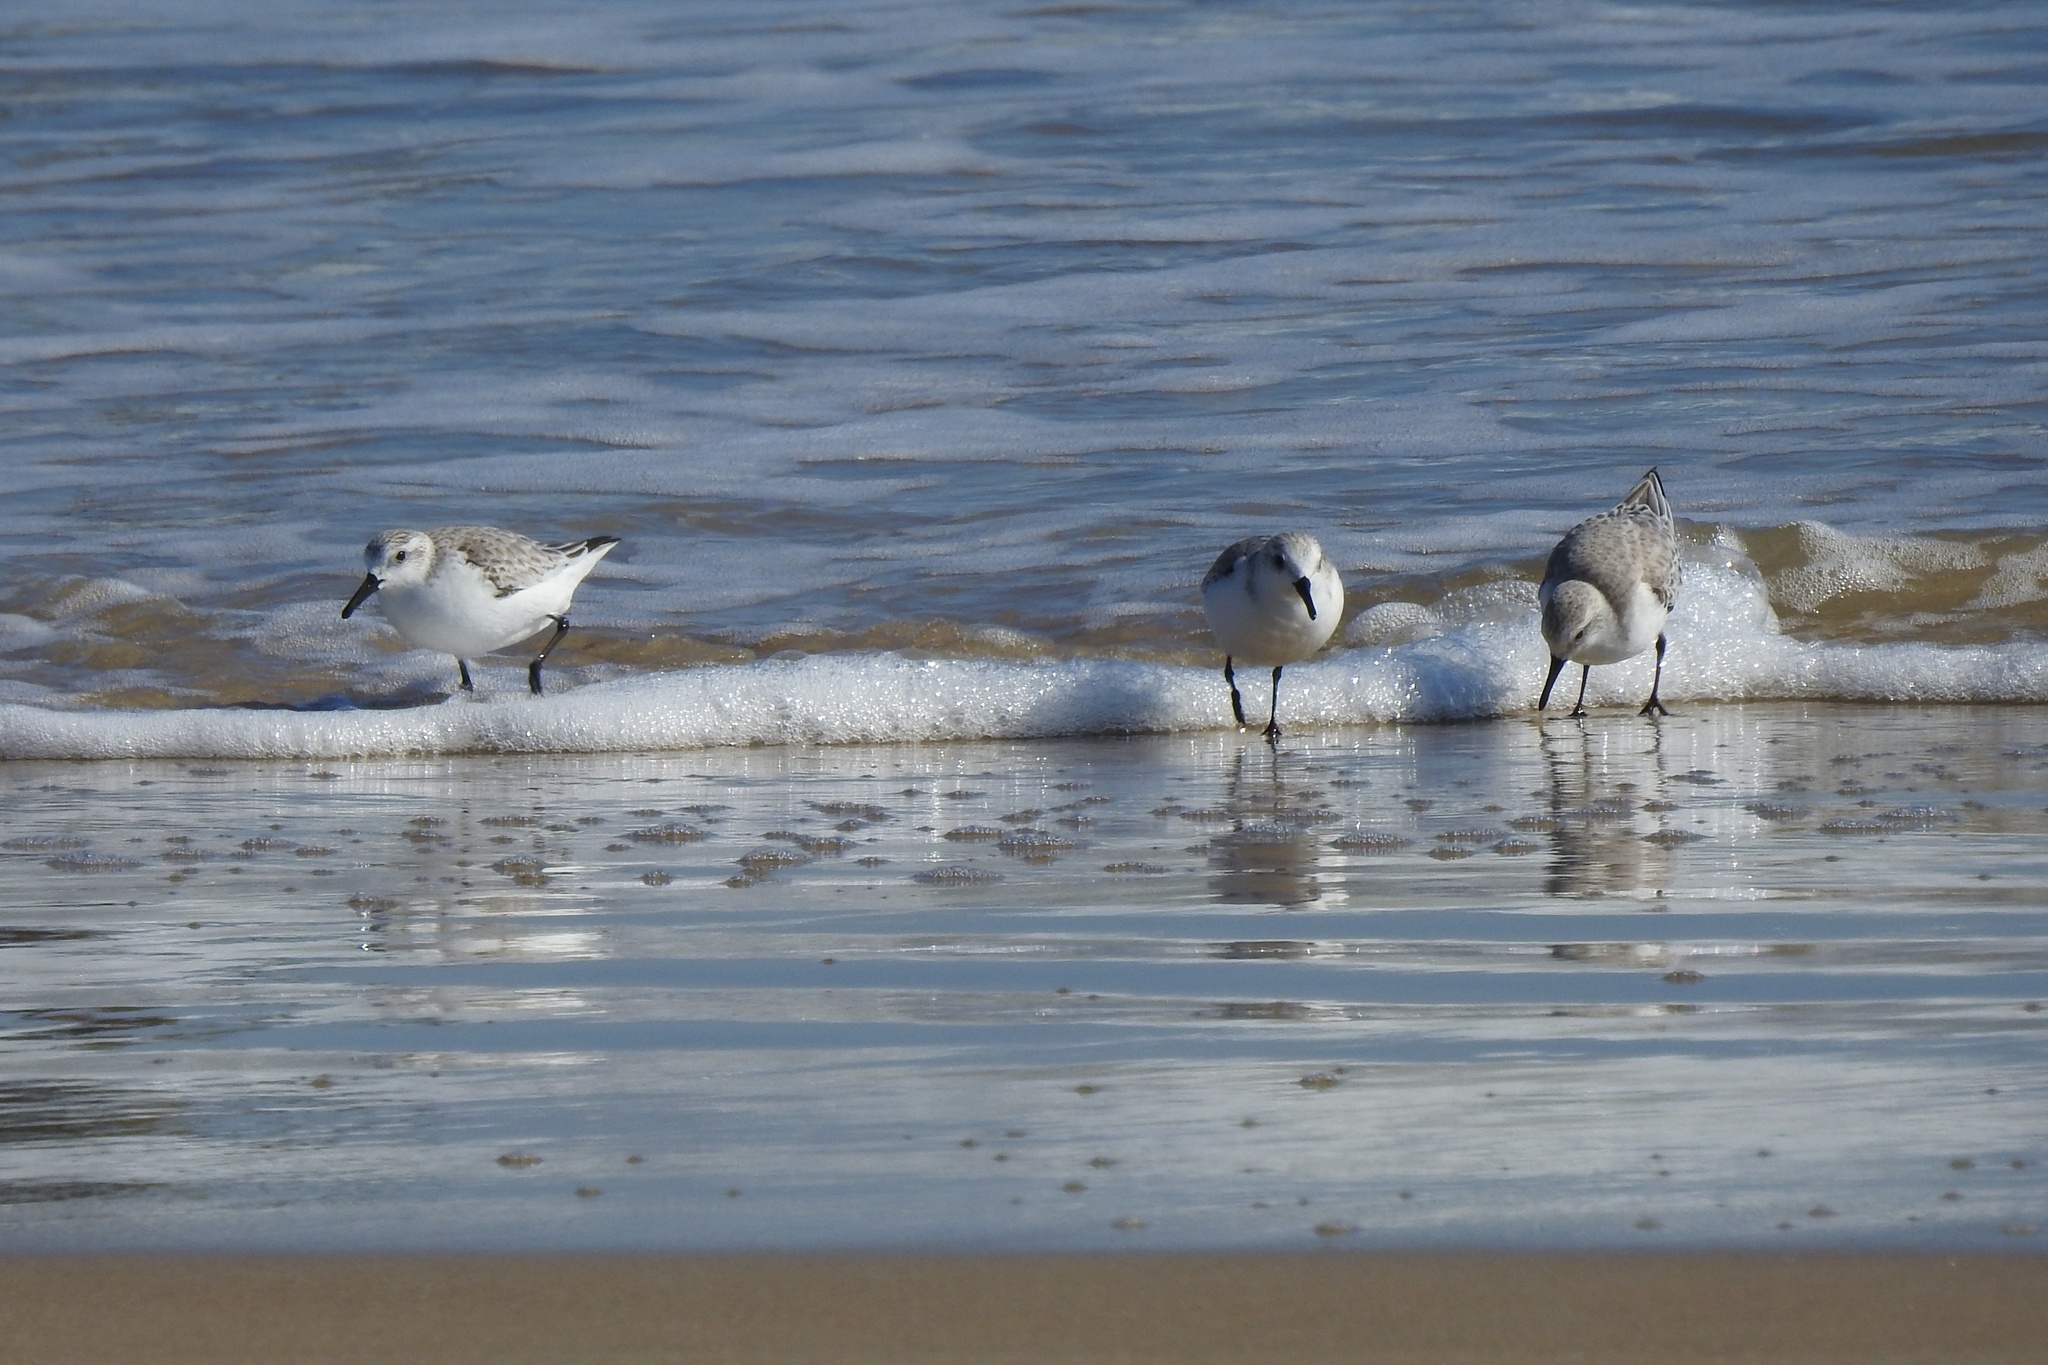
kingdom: Animalia
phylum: Chordata
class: Aves
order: Charadriiformes
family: Scolopacidae
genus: Calidris
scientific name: Calidris alba
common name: Sanderling
